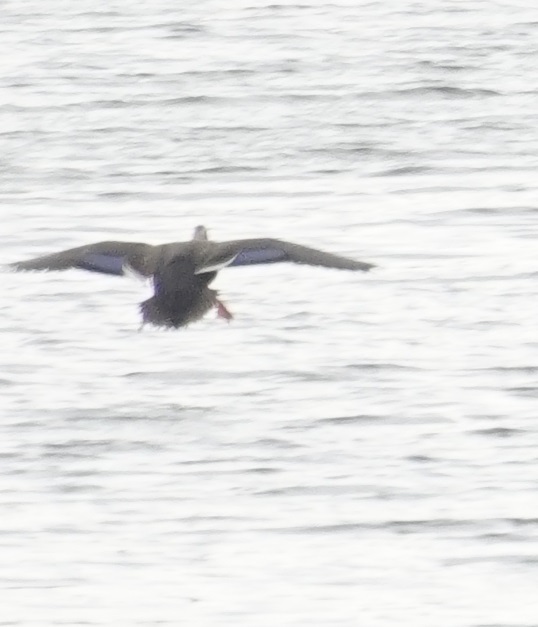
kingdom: Animalia
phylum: Chordata
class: Aves
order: Anseriformes
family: Anatidae
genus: Anas
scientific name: Anas zonorhyncha
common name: Eastern spot-billed duck
